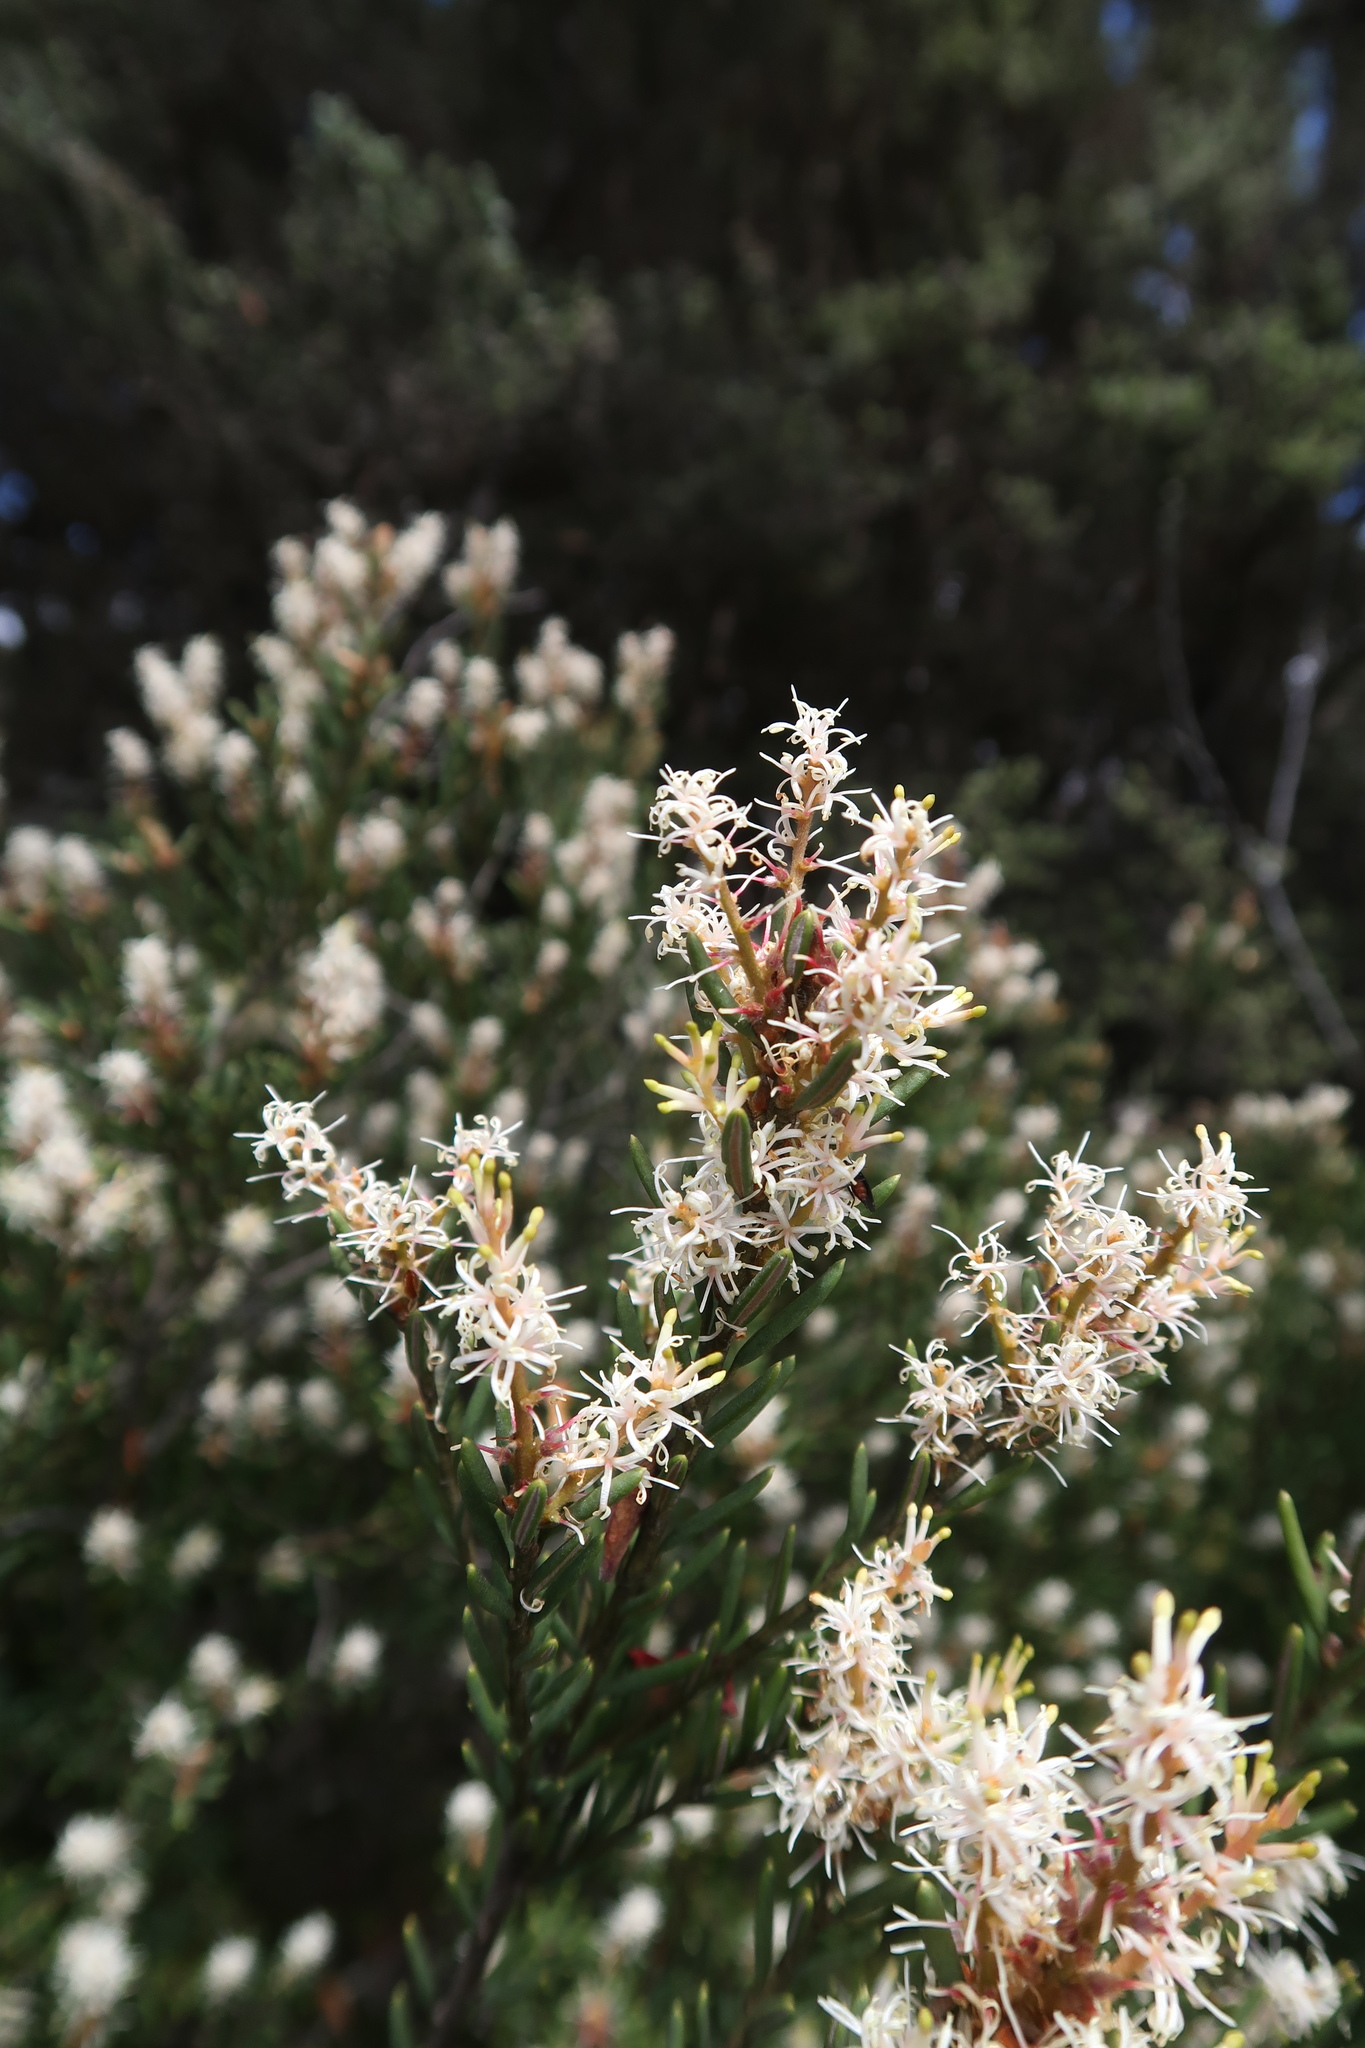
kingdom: Plantae
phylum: Tracheophyta
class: Magnoliopsida
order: Proteales
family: Proteaceae
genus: Orites
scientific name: Orites revolutus
